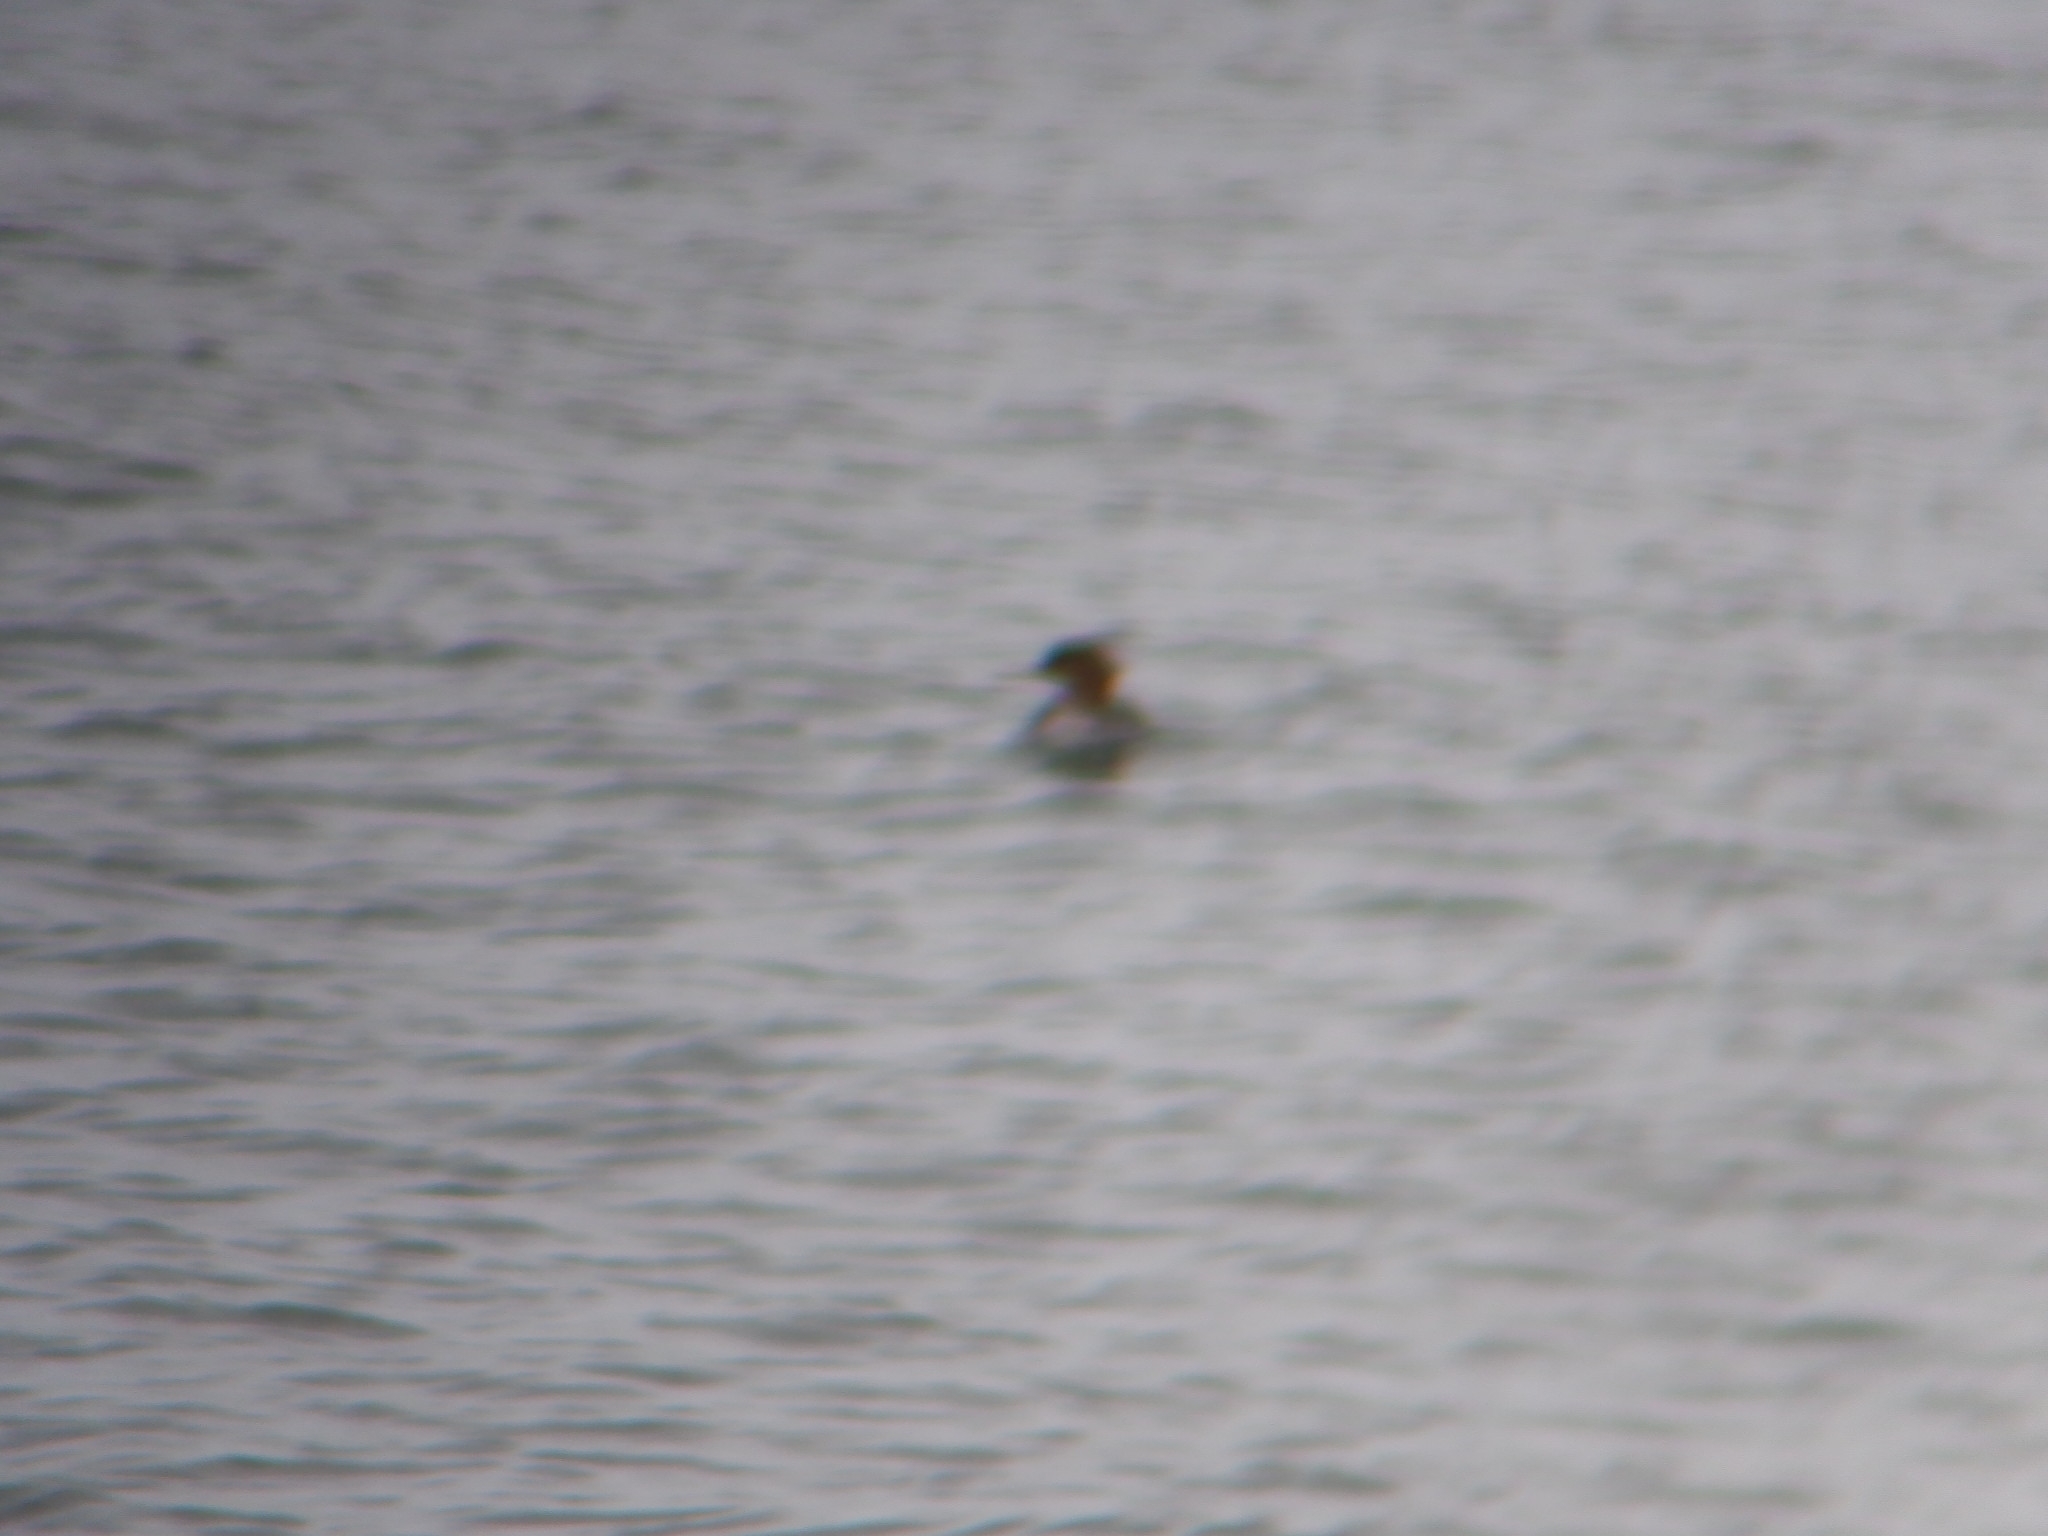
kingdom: Animalia
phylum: Chordata
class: Aves
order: Anseriformes
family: Anatidae
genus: Mergus
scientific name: Mergus serrator
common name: Red-breasted merganser
